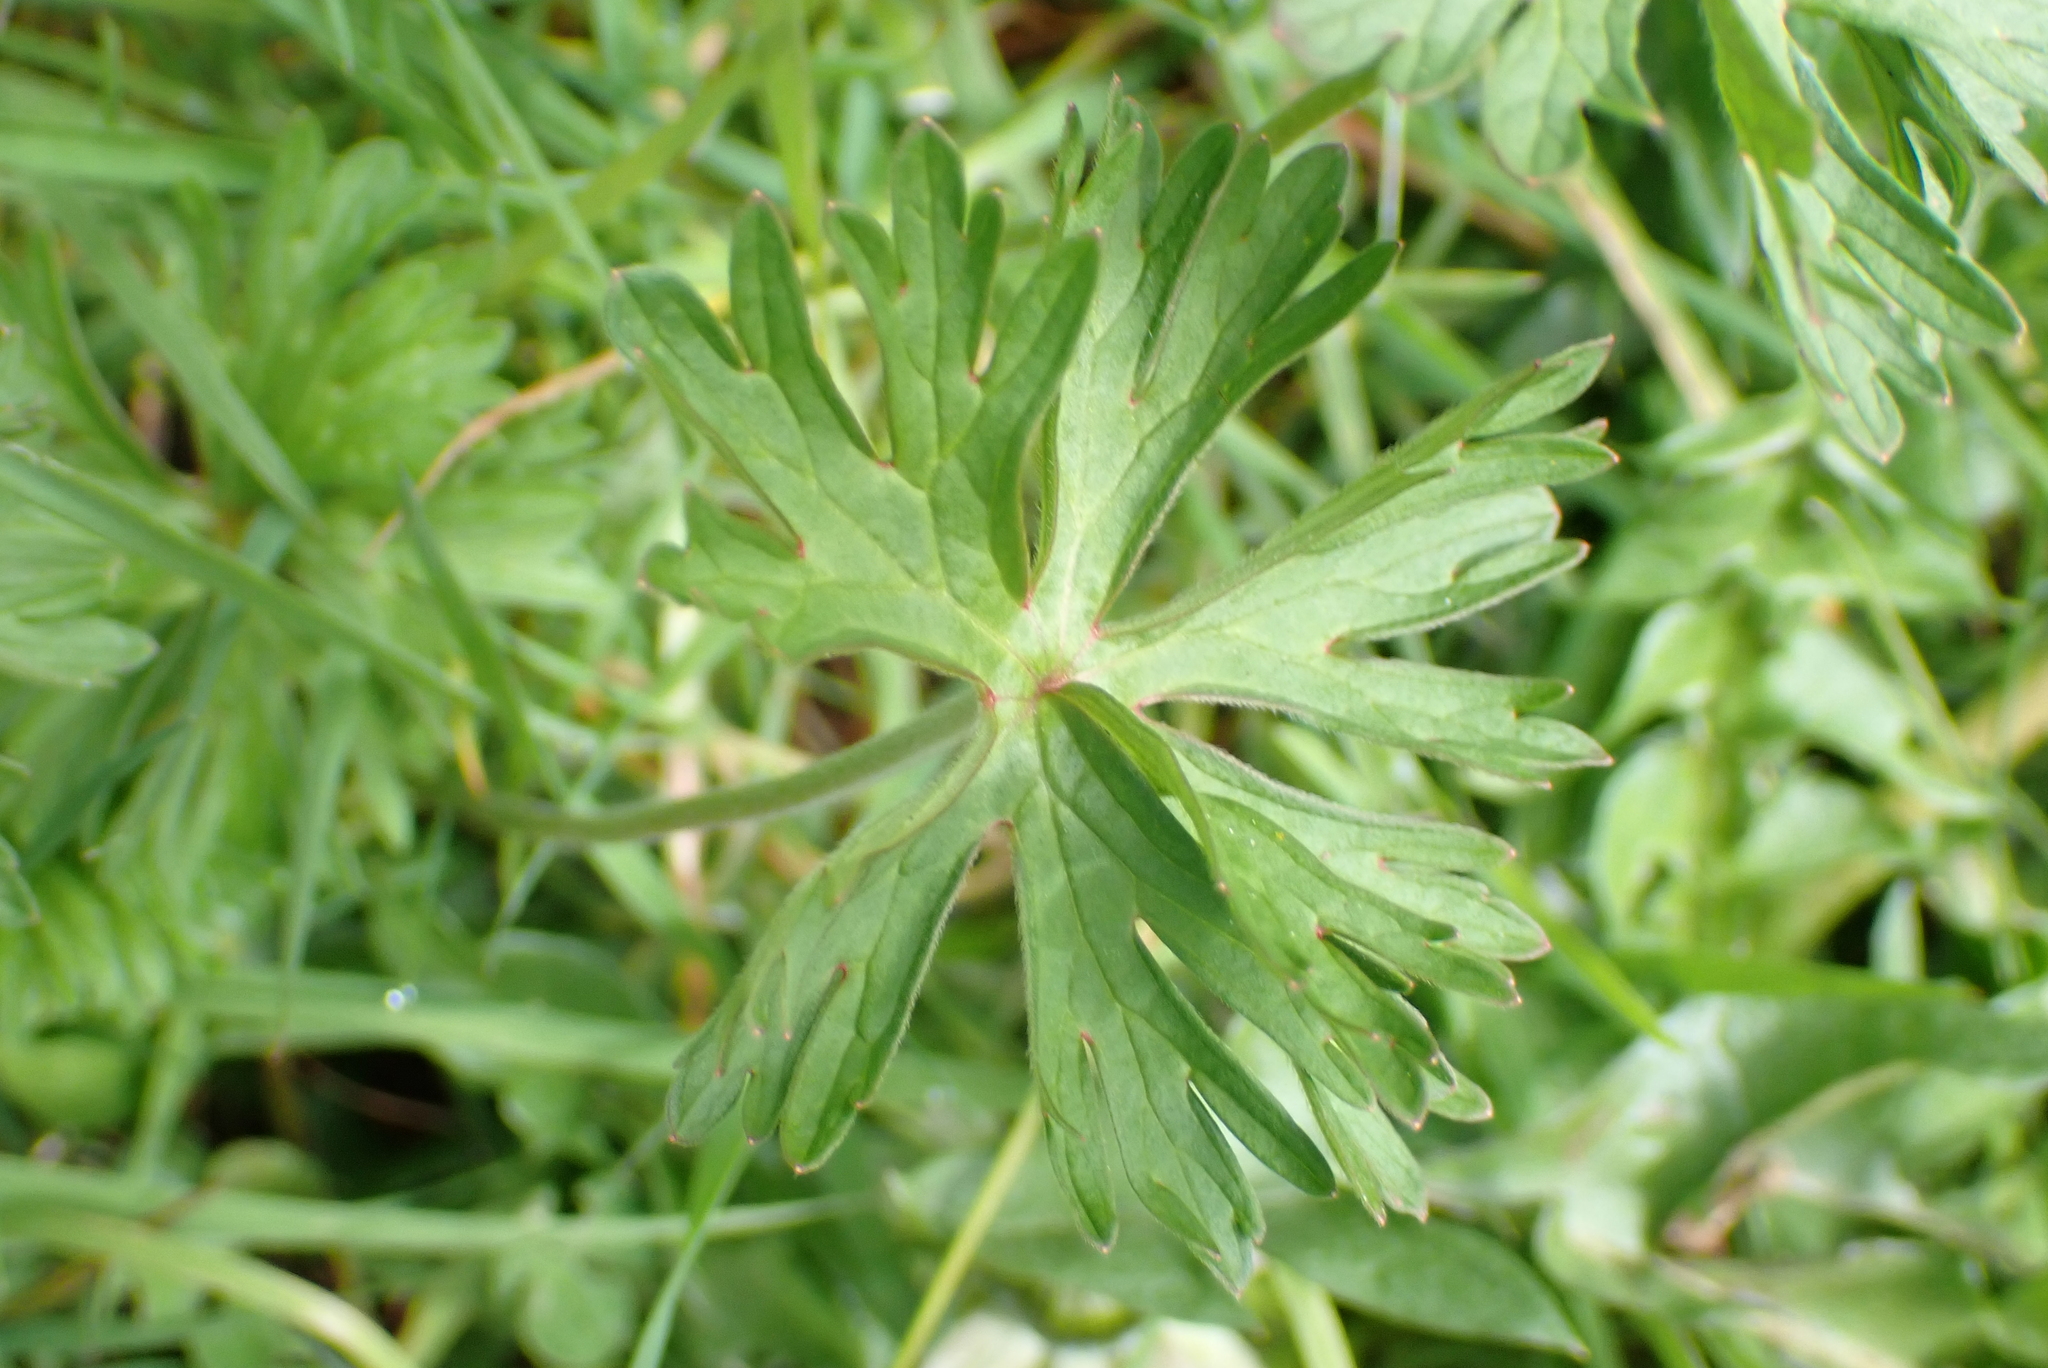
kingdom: Plantae
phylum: Tracheophyta
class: Magnoliopsida
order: Geraniales
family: Geraniaceae
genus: Geranium
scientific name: Geranium dissectum
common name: Cut-leaved crane's-bill
